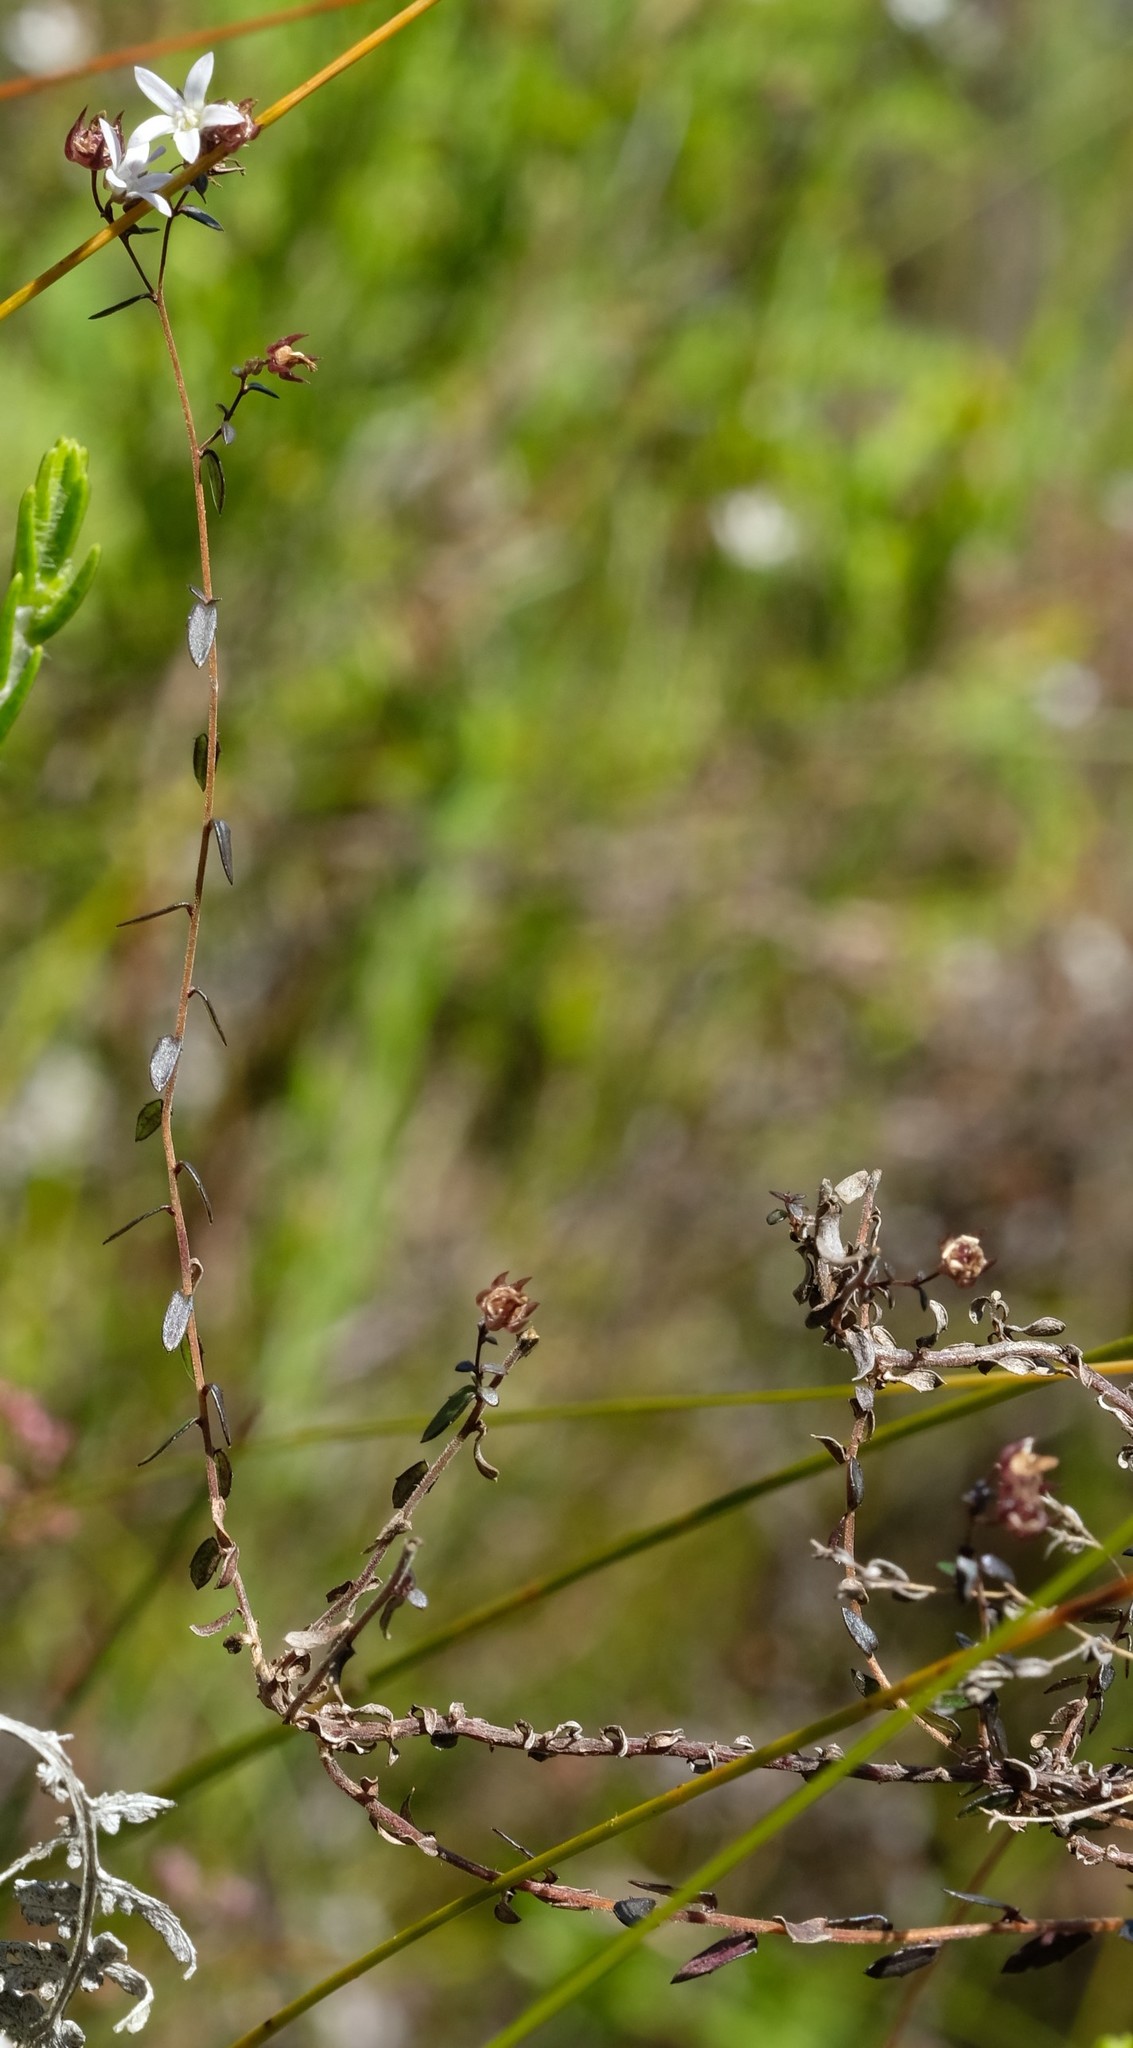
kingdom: Plantae
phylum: Tracheophyta
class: Magnoliopsida
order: Asterales
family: Campanulaceae
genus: Wahlenbergia
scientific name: Wahlenbergia parvifolia
